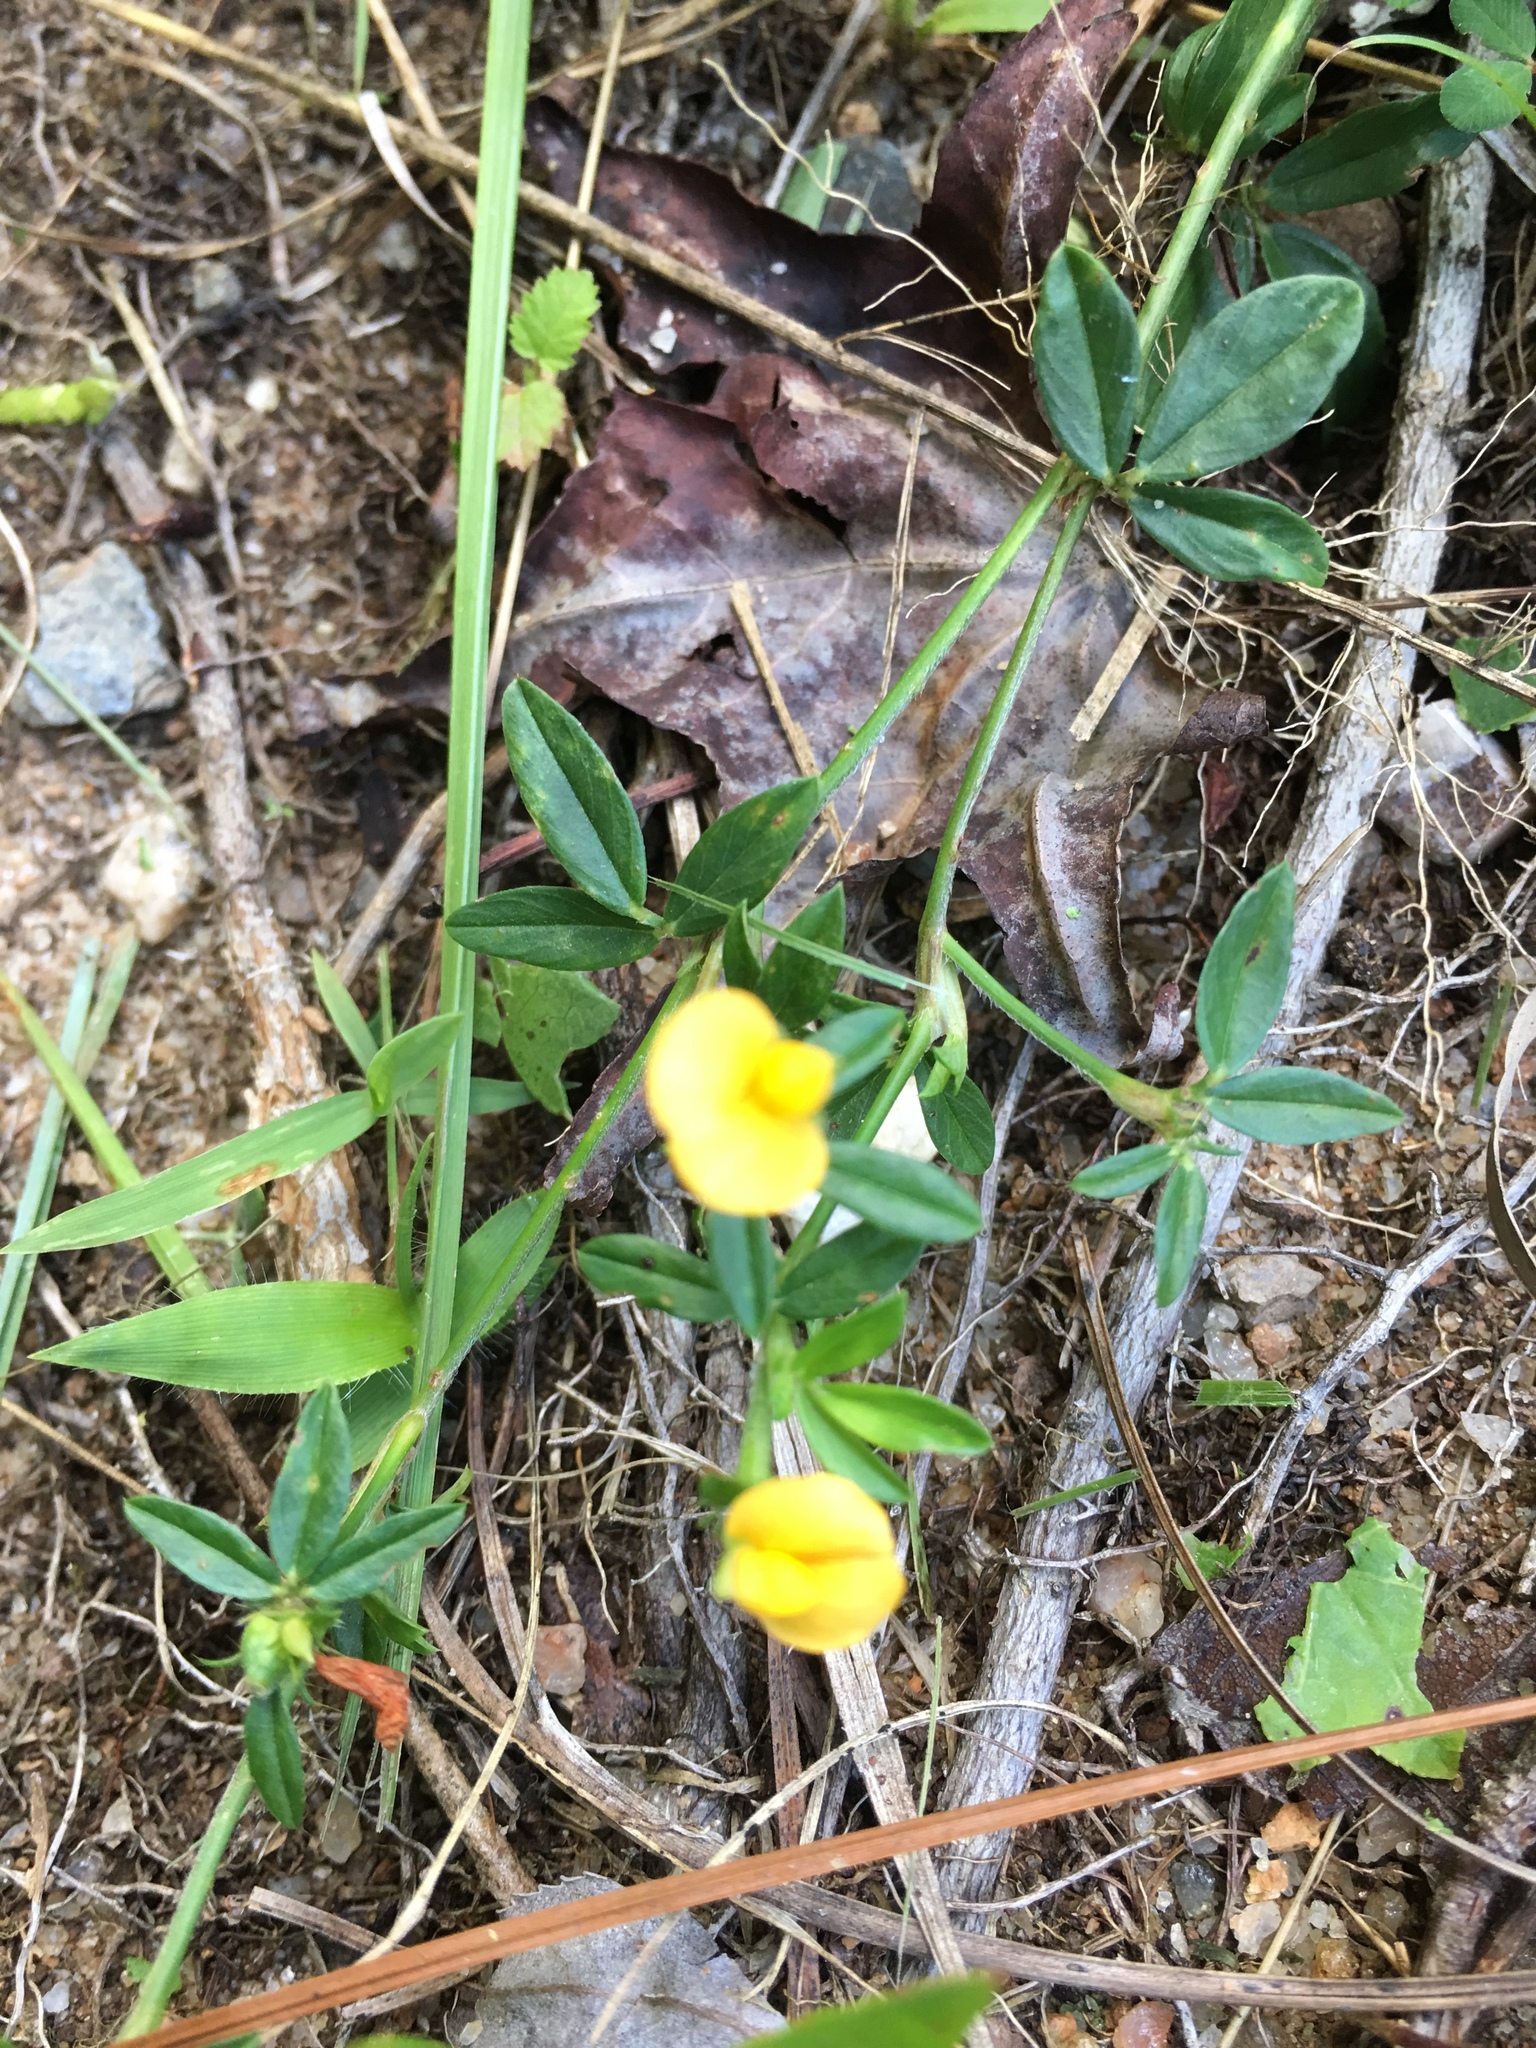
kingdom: Plantae
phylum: Tracheophyta
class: Magnoliopsida
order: Fabales
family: Fabaceae
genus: Stylosanthes
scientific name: Stylosanthes biflora
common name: Two-flower pencil-flower
